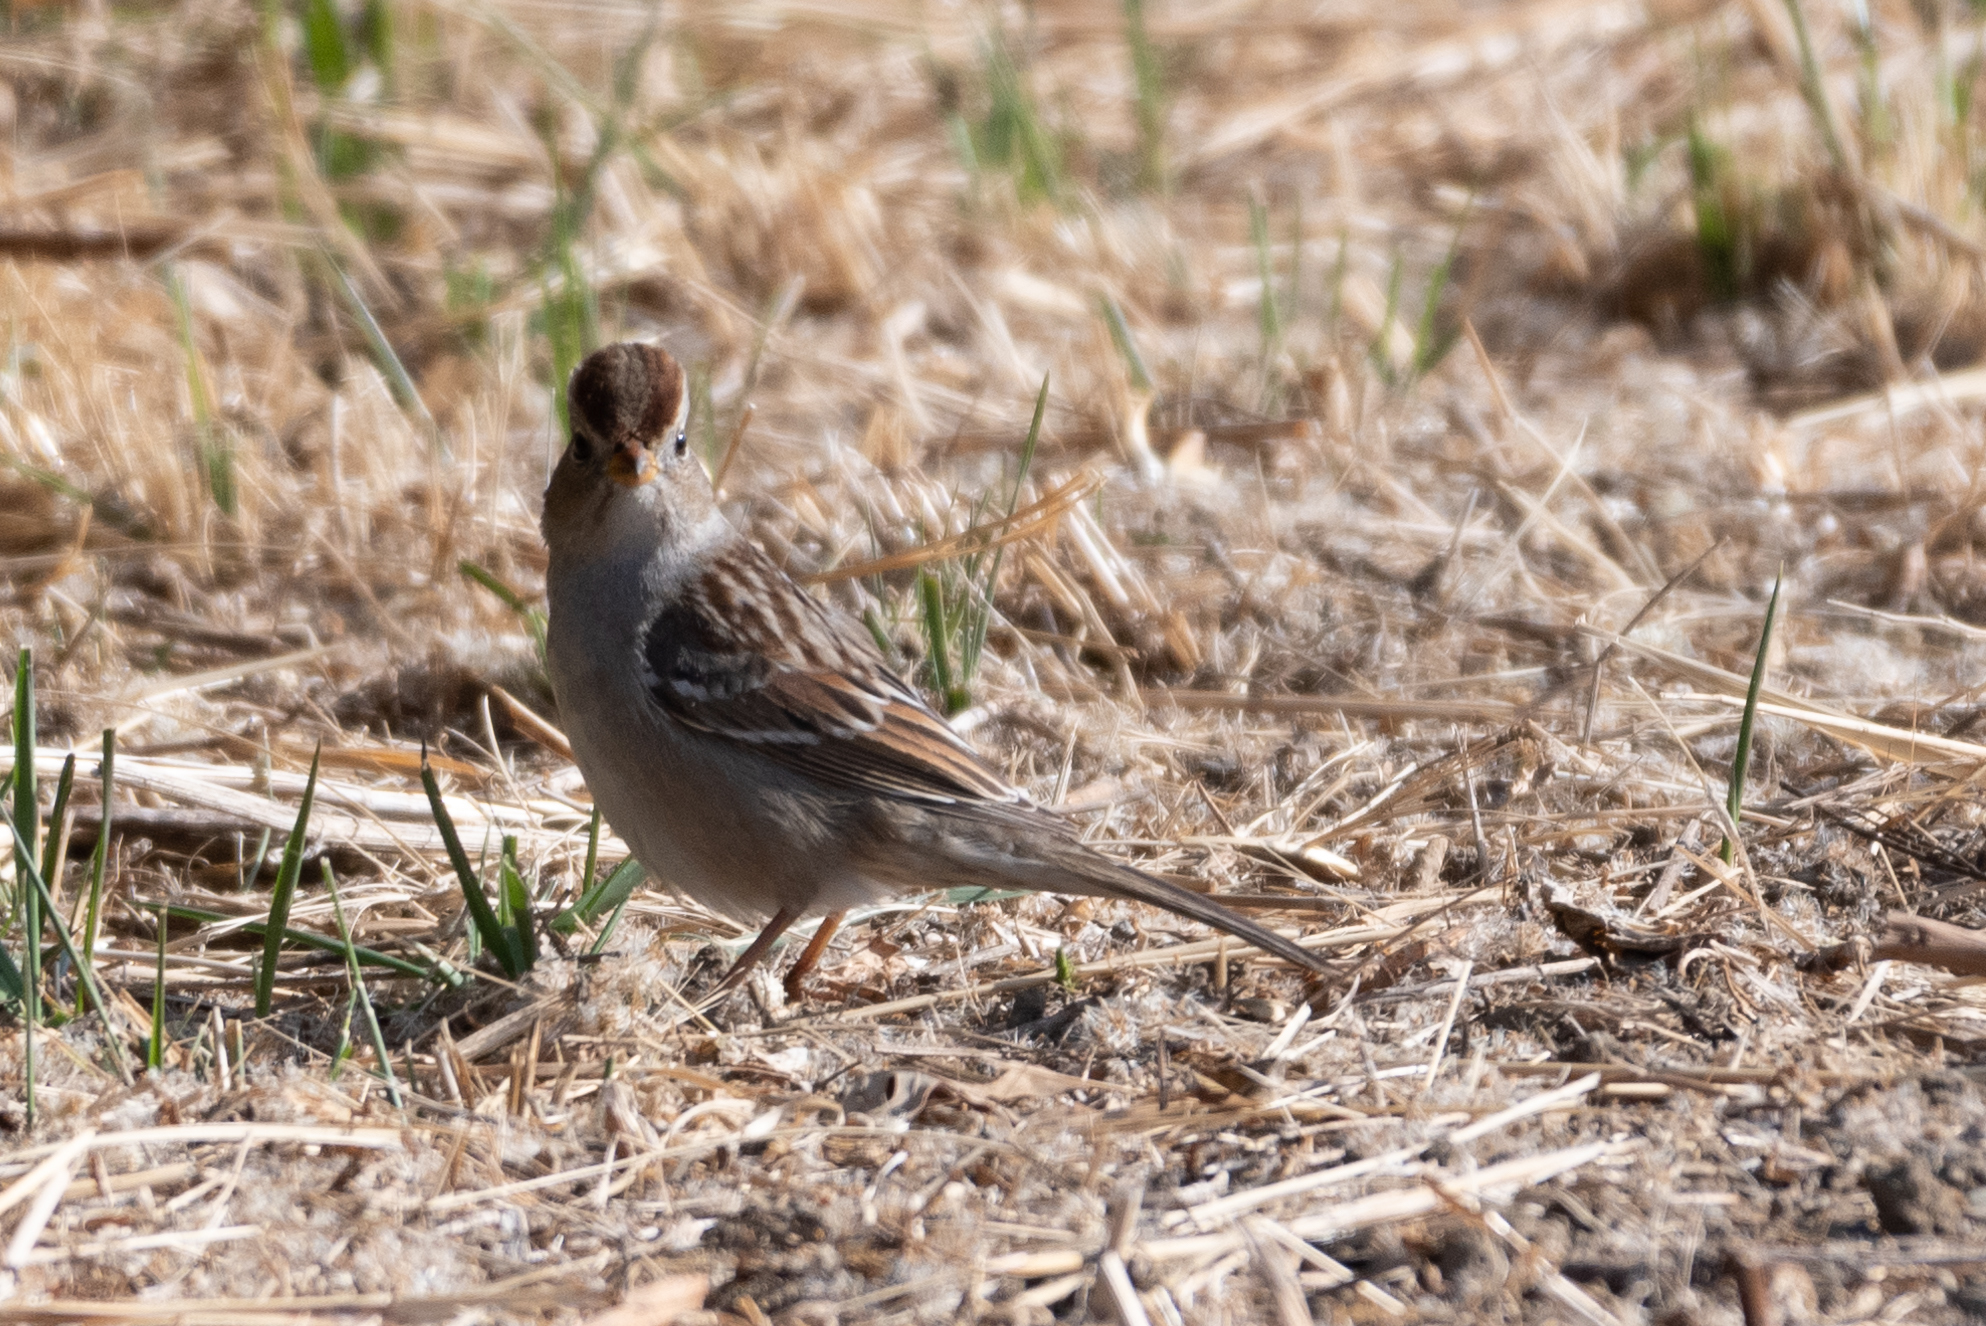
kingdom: Animalia
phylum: Chordata
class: Aves
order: Passeriformes
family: Passerellidae
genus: Zonotrichia
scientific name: Zonotrichia leucophrys
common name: White-crowned sparrow
